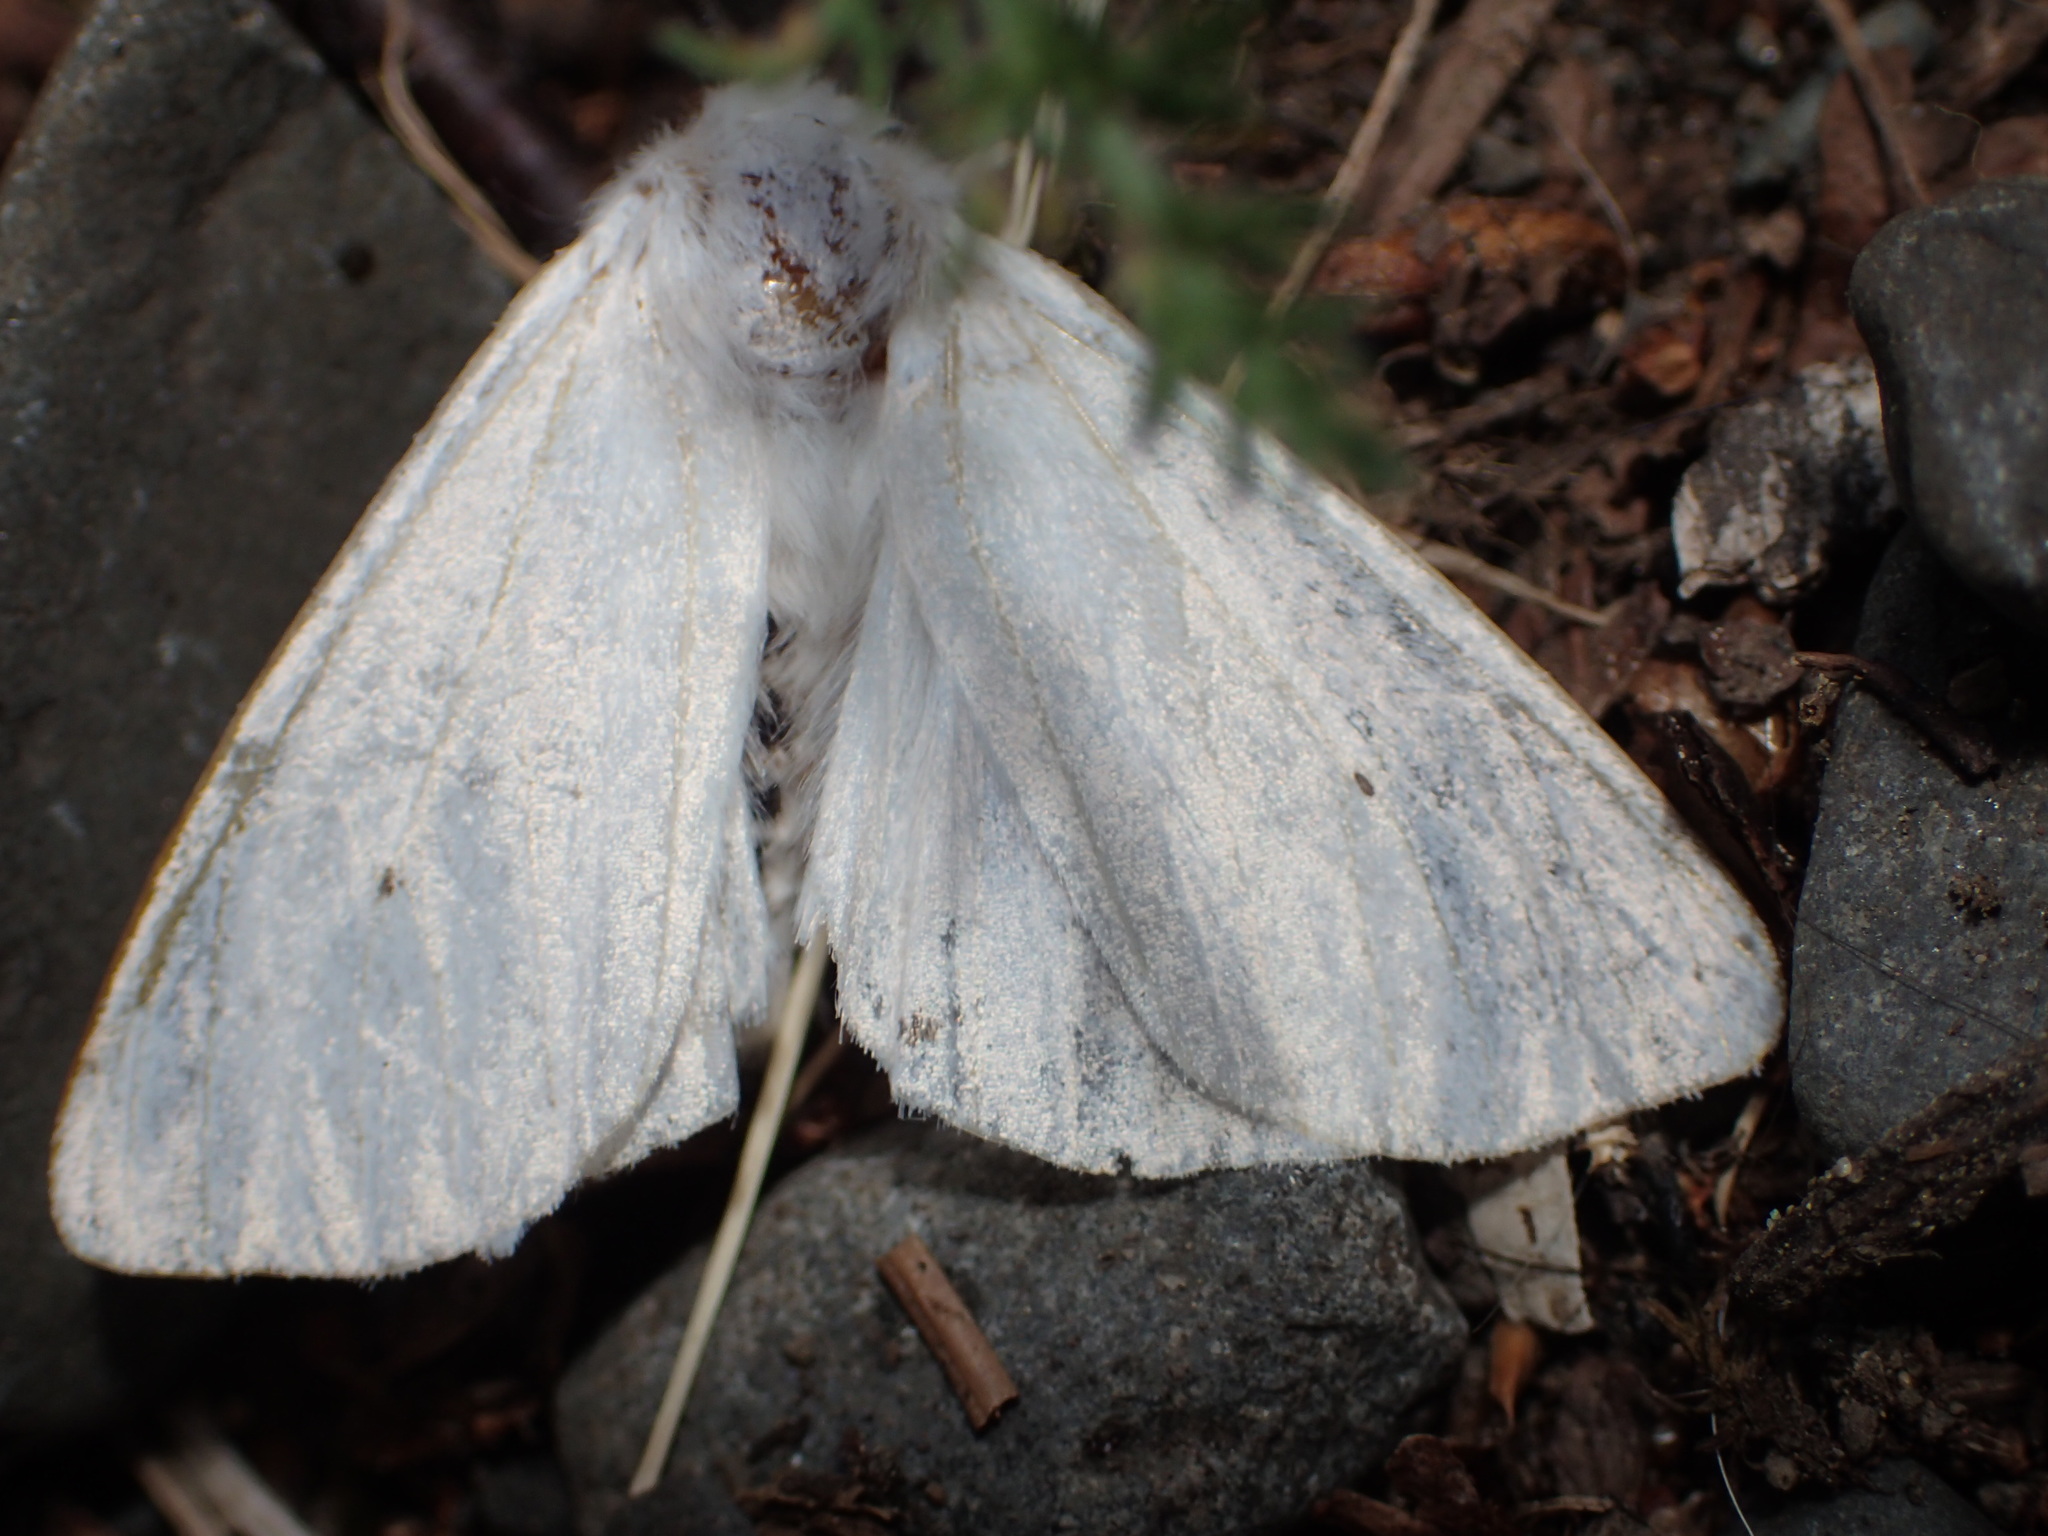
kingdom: Animalia
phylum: Arthropoda
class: Insecta
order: Lepidoptera
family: Erebidae
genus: Spilosoma
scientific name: Spilosoma virginica
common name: Virginia tiger moth
